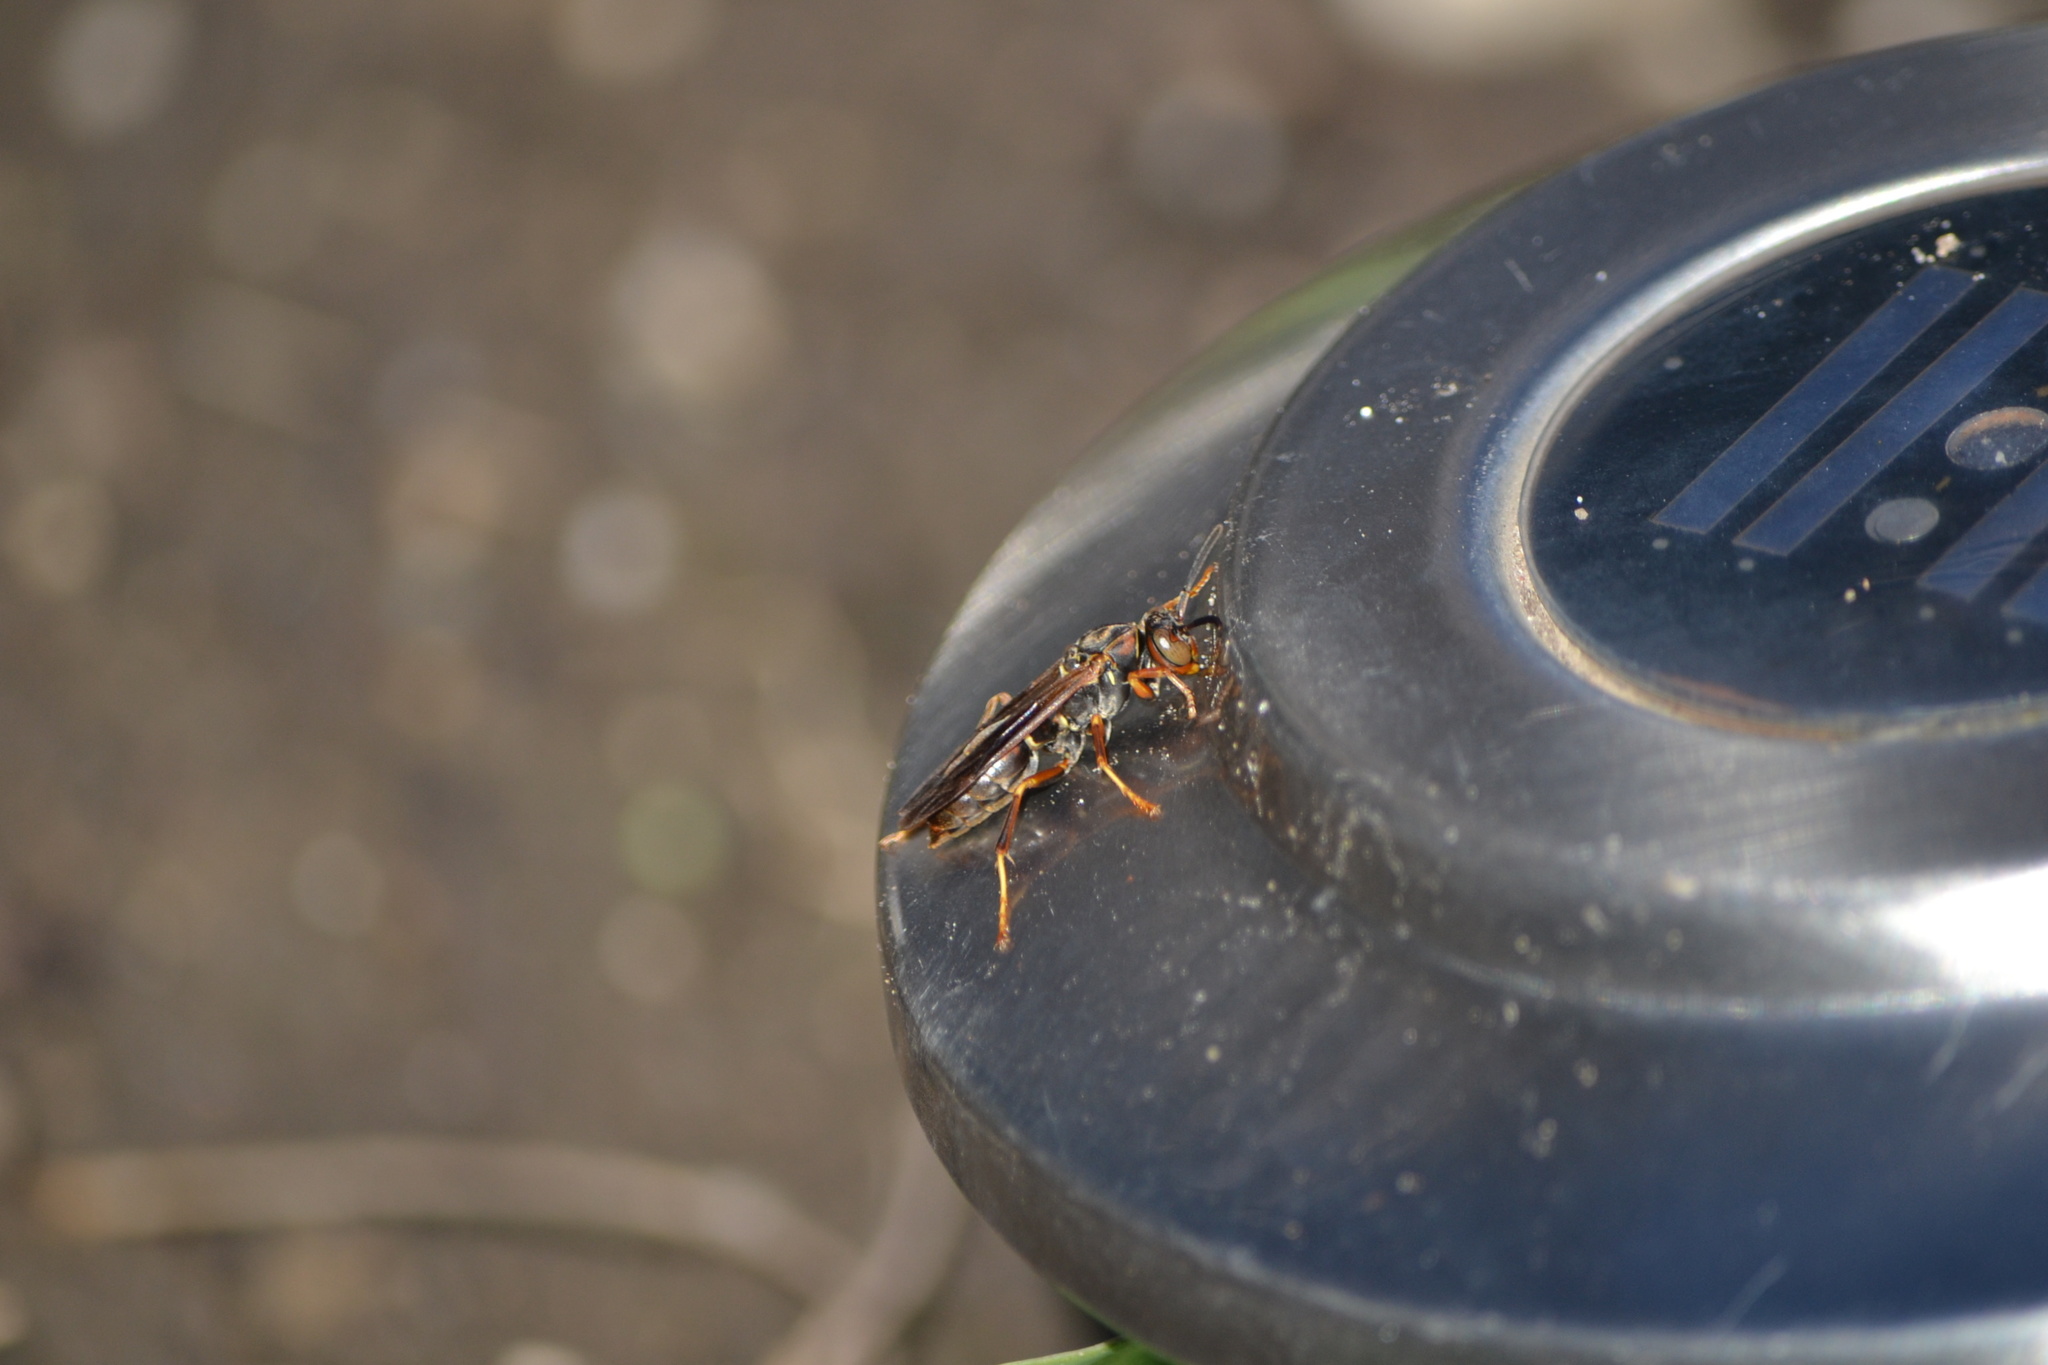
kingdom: Animalia
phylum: Arthropoda
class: Insecta
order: Hymenoptera
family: Eumenidae
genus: Polistes
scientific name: Polistes fuscatus
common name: Dark paper wasp
